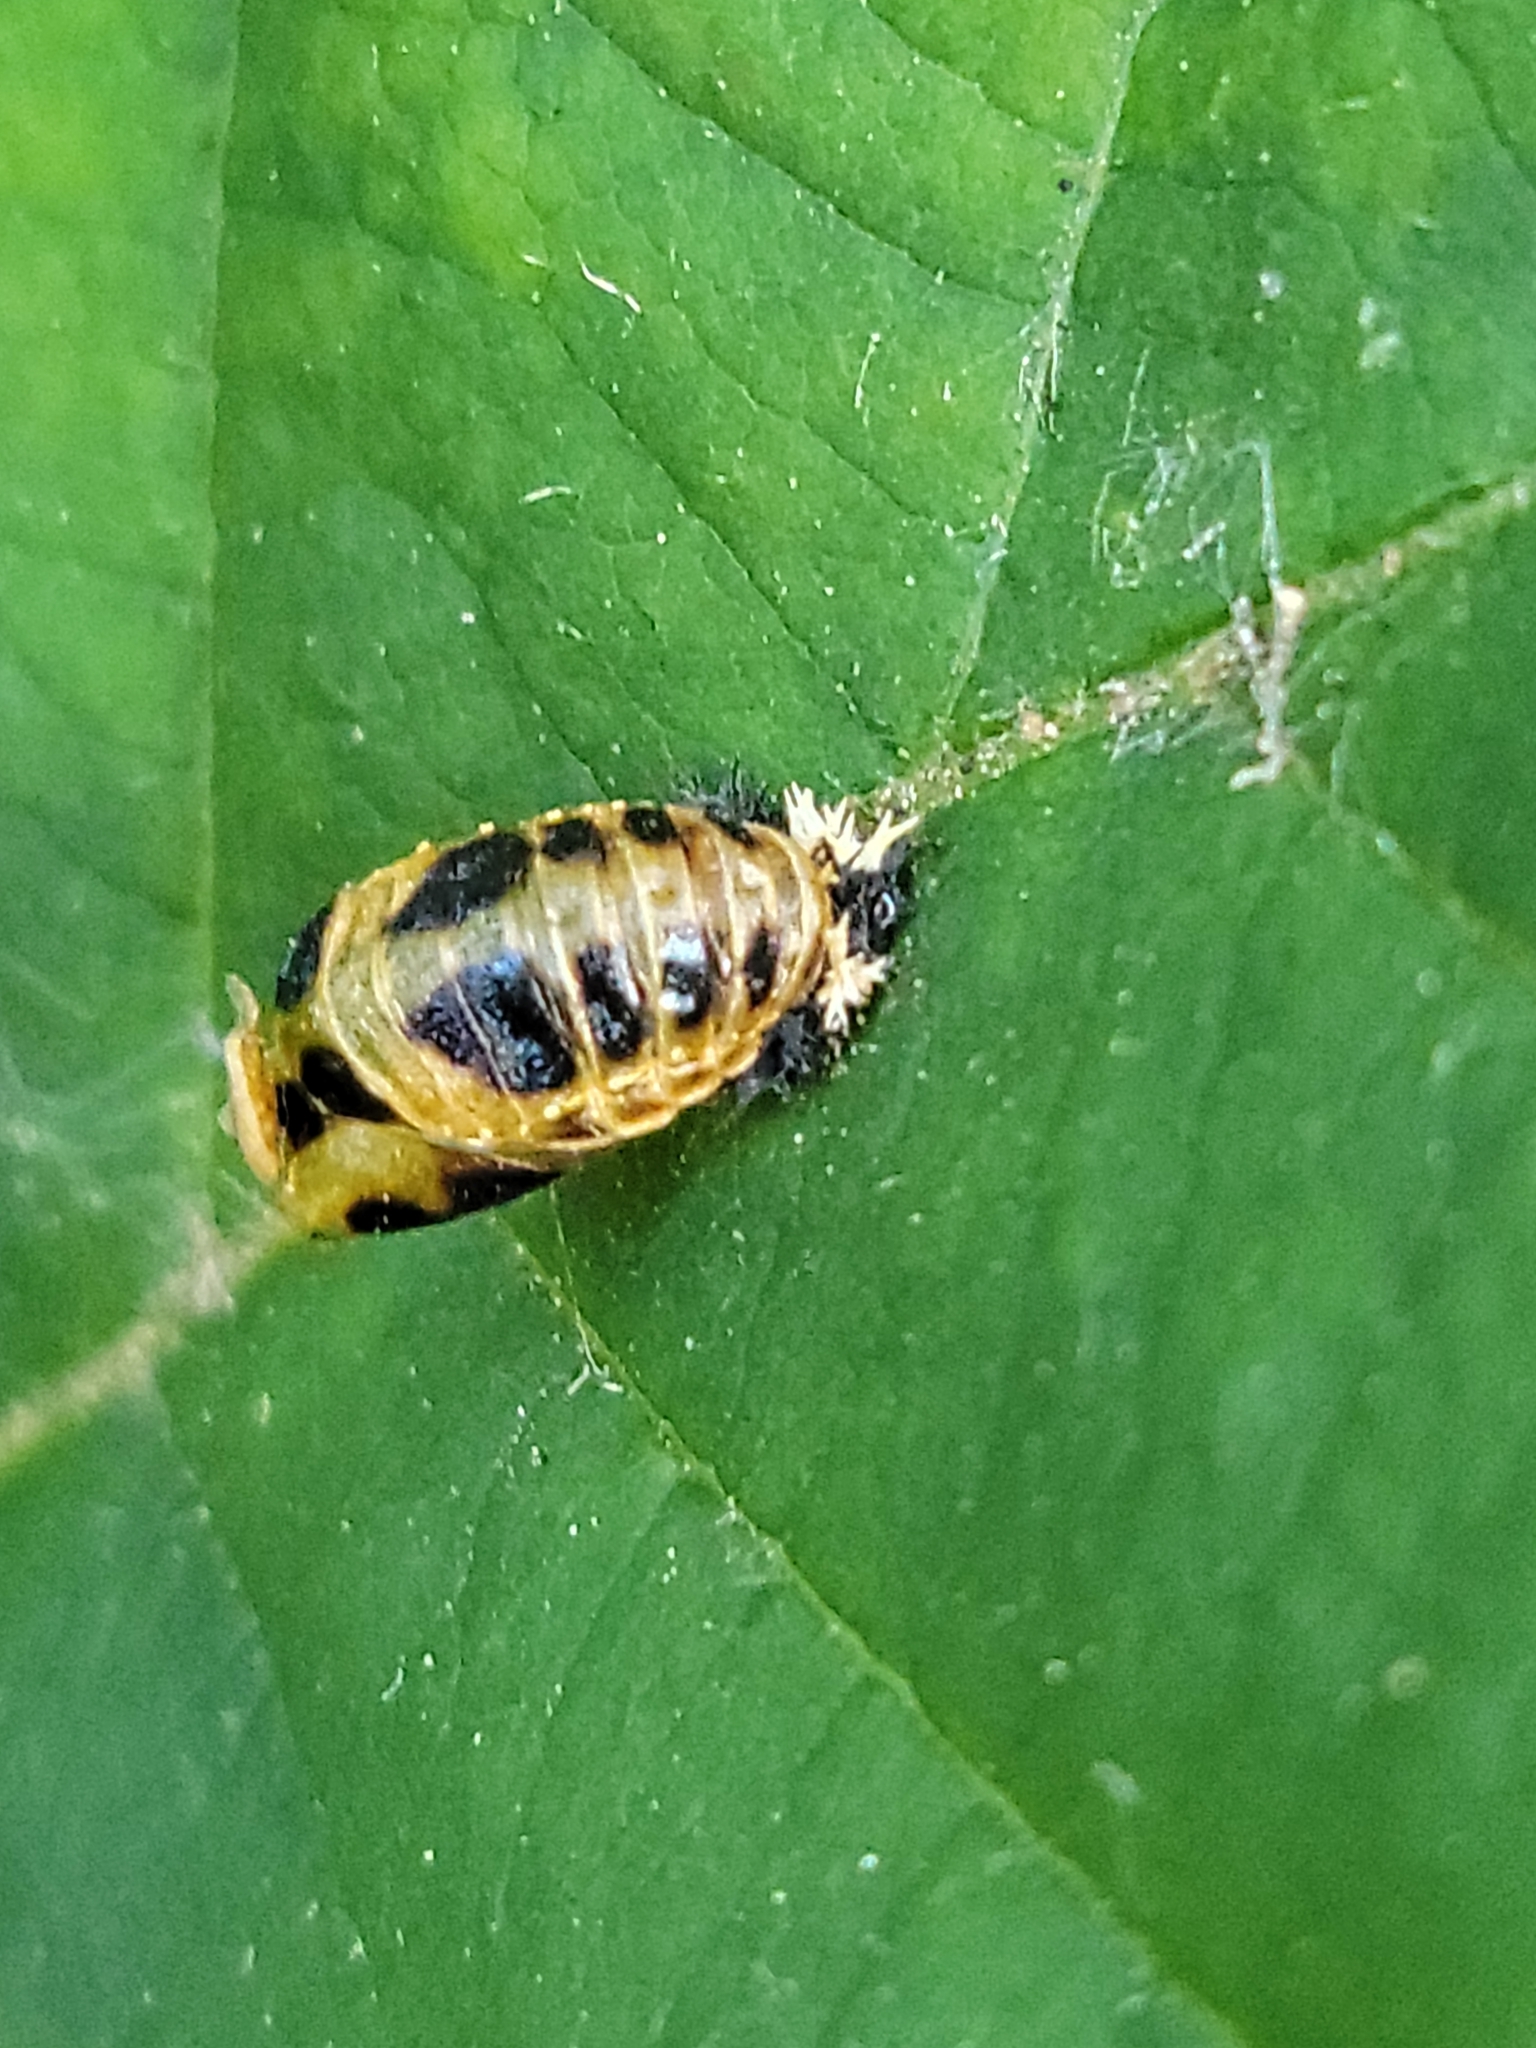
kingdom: Animalia
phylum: Arthropoda
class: Insecta
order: Coleoptera
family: Coccinellidae
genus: Harmonia
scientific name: Harmonia axyridis
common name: Harlequin ladybird
